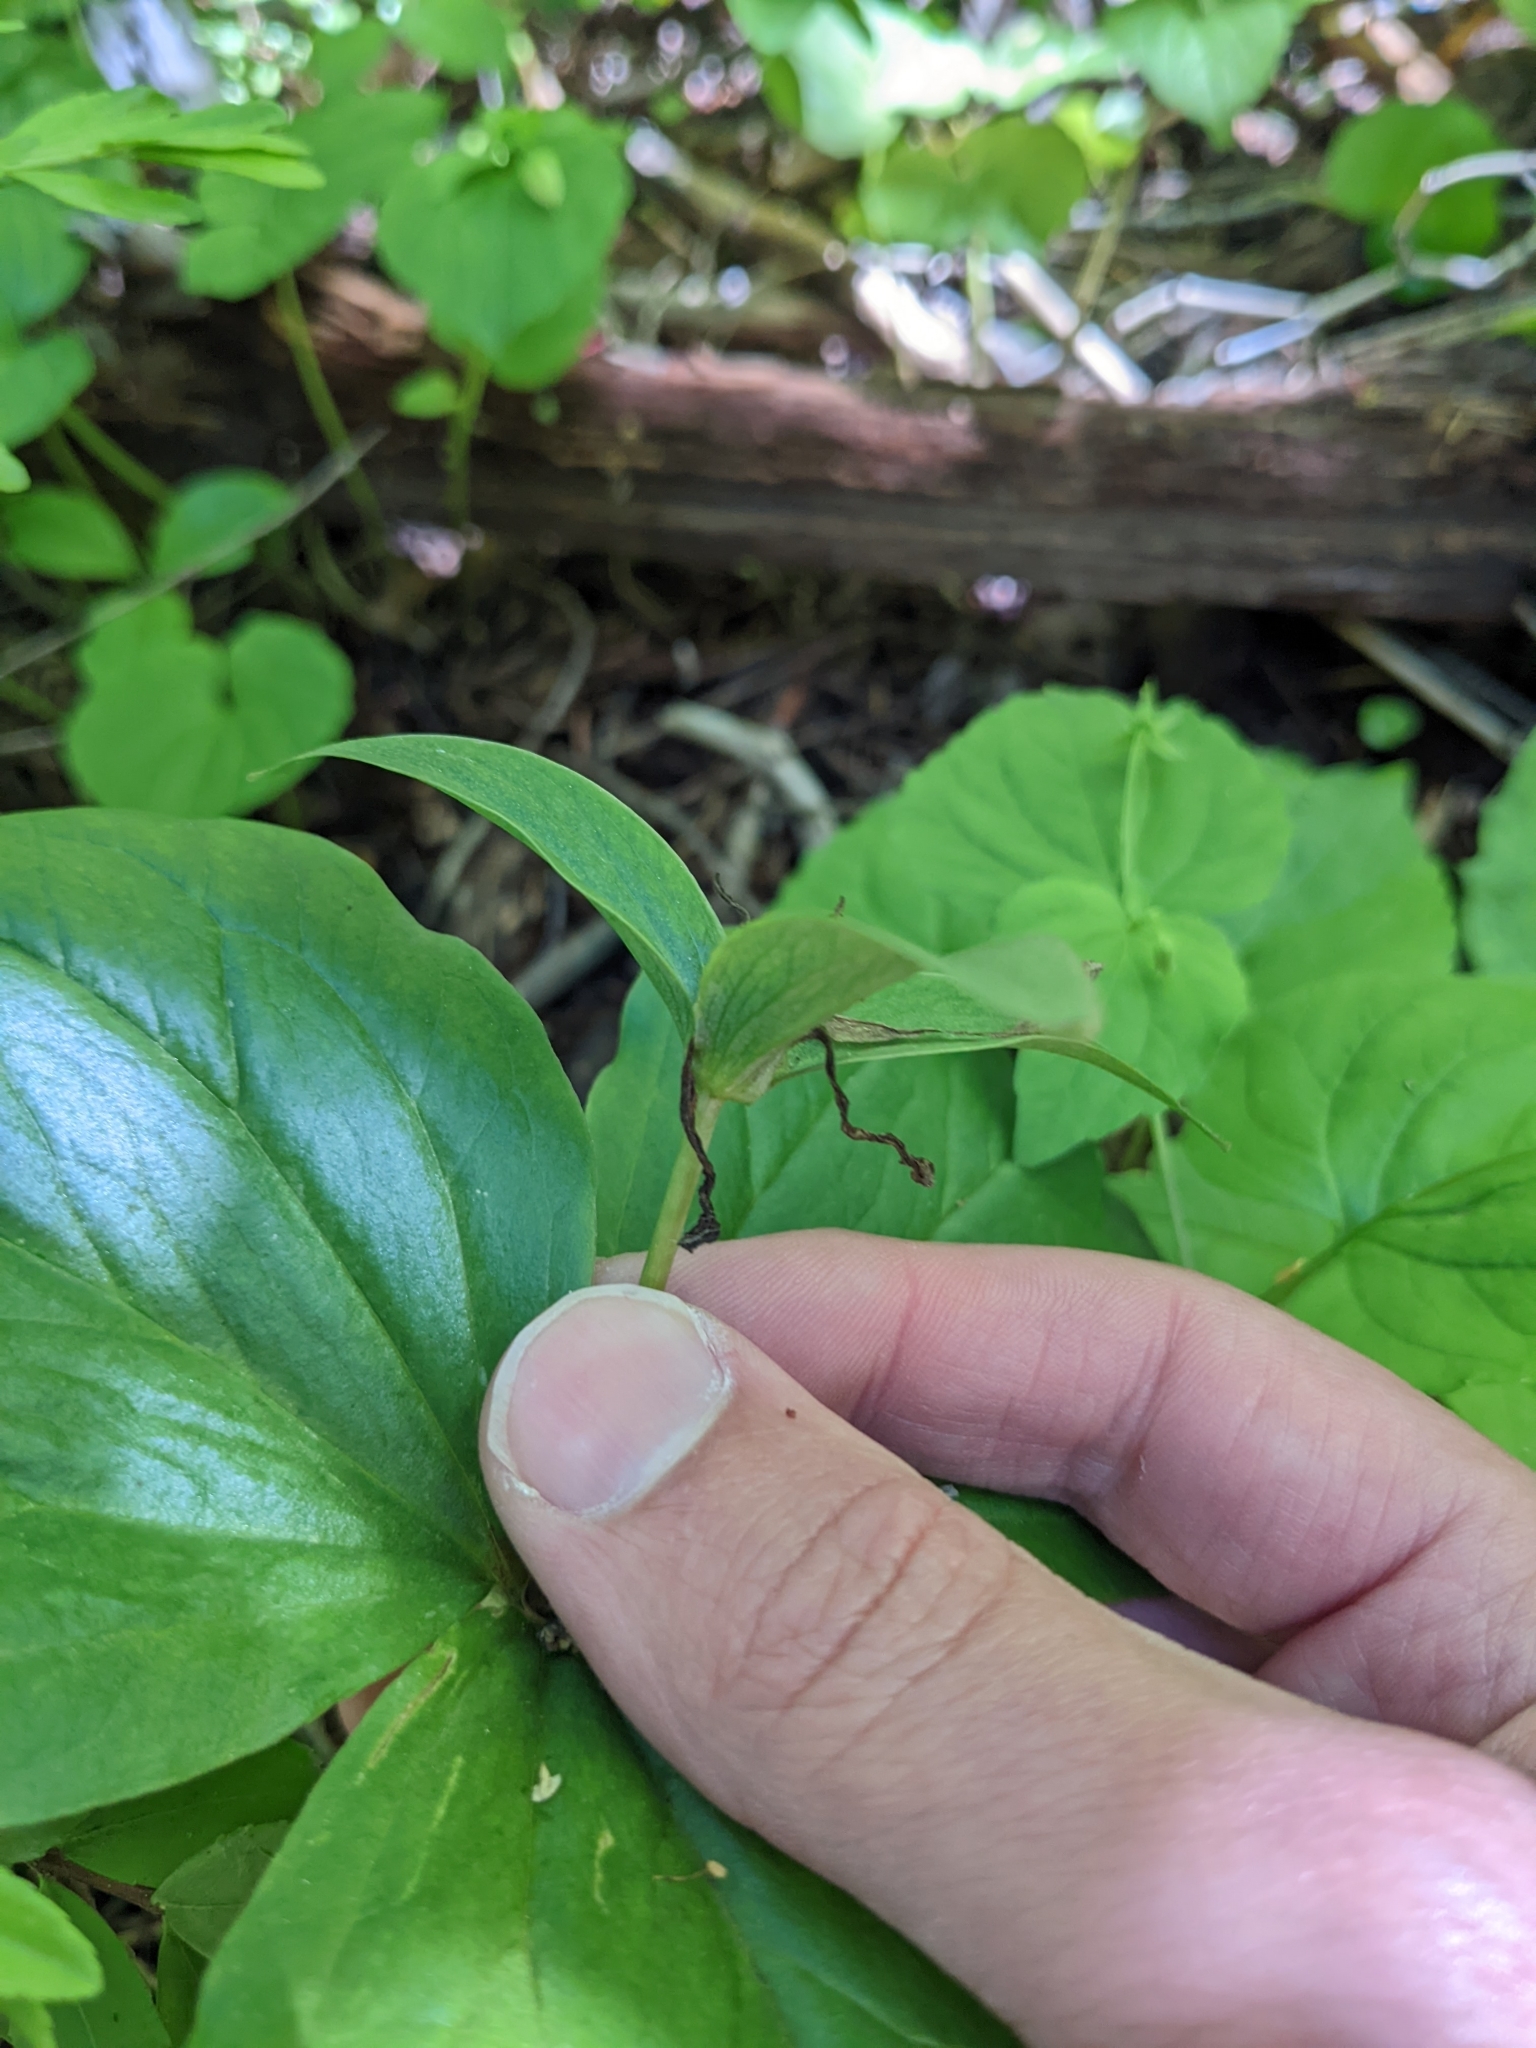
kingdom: Plantae
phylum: Tracheophyta
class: Liliopsida
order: Liliales
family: Melanthiaceae
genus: Trillium
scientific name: Trillium ovatum
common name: Pacific trillium
